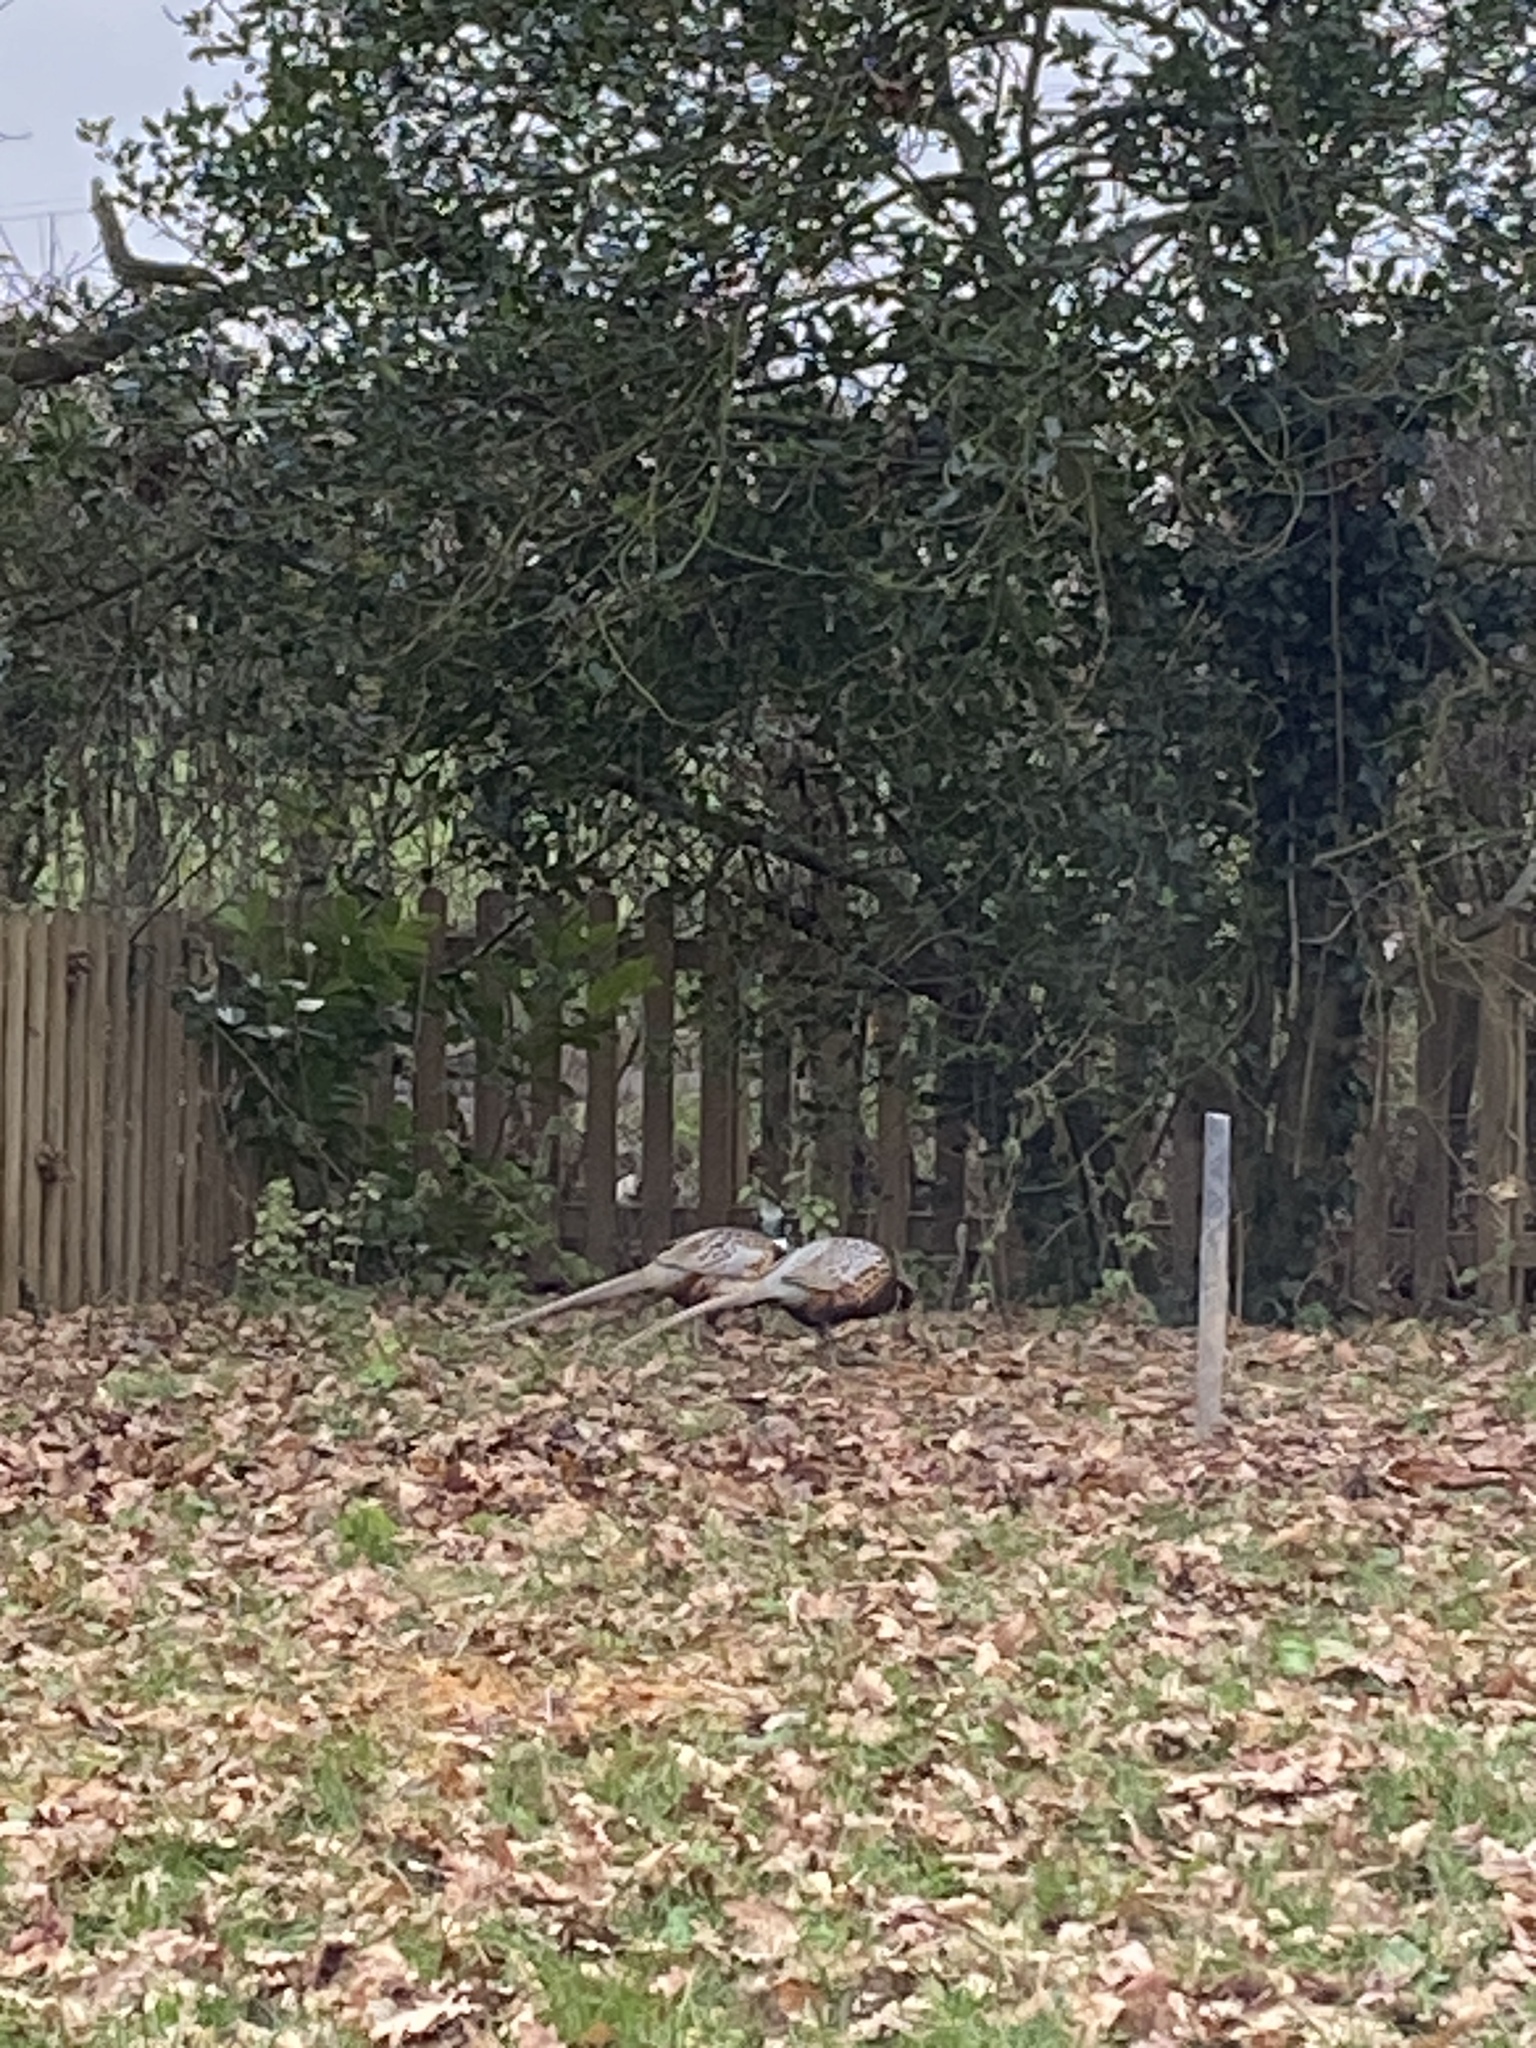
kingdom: Animalia
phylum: Chordata
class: Aves
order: Galliformes
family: Phasianidae
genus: Phasianus
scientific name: Phasianus colchicus
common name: Common pheasant
